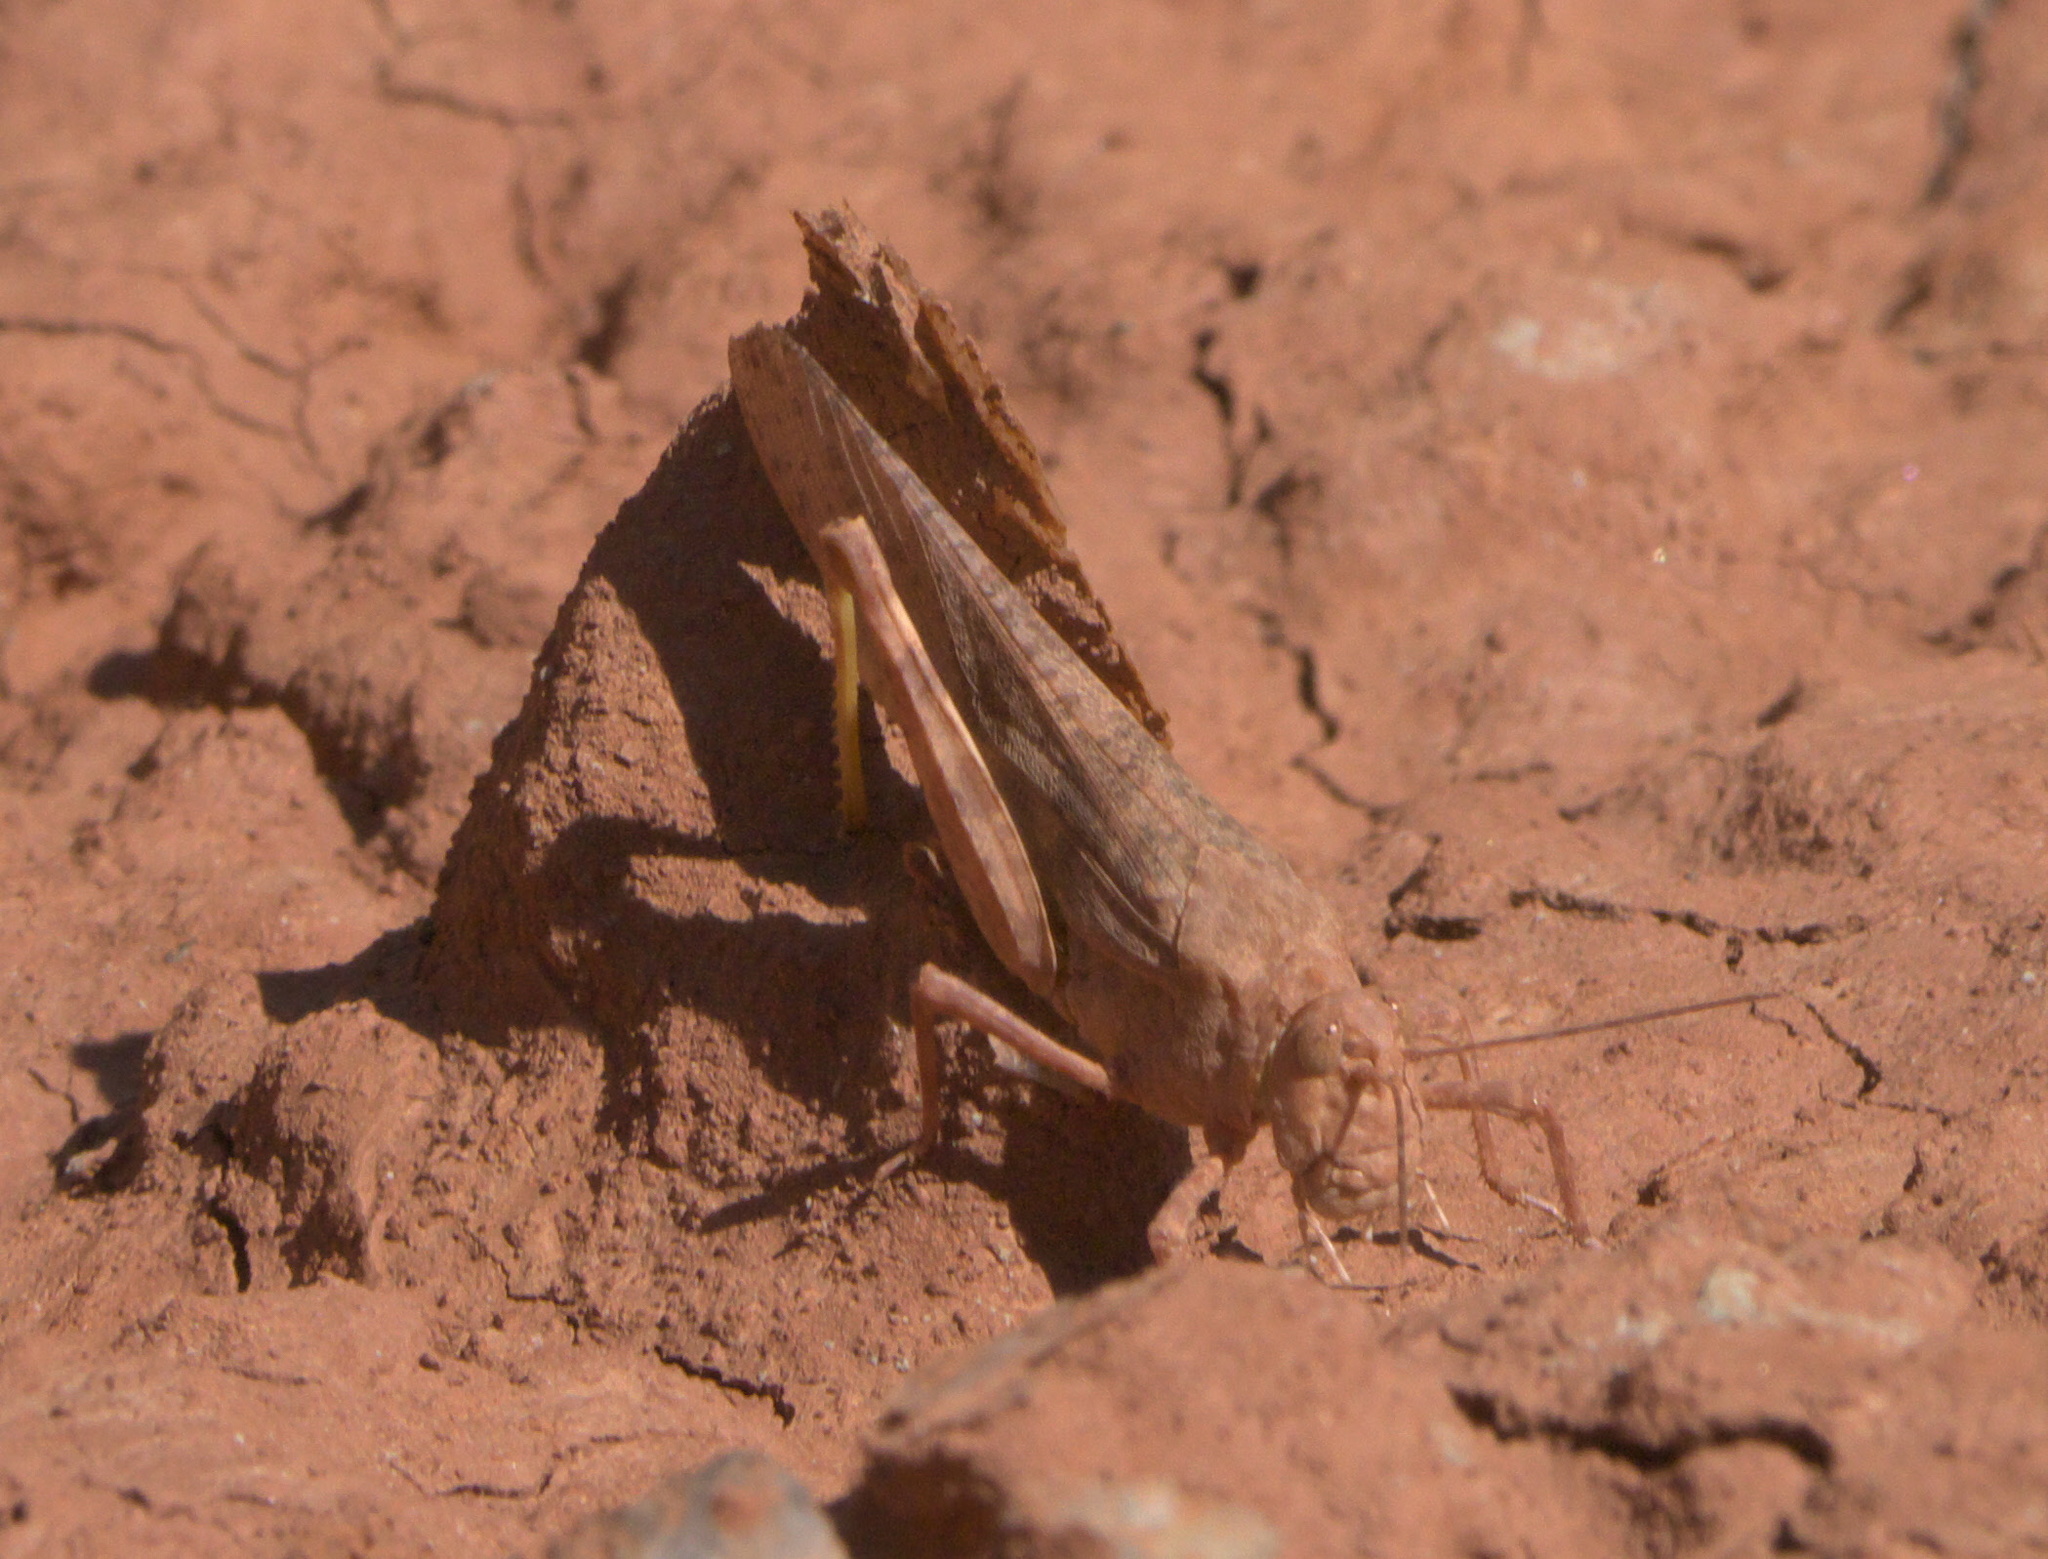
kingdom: Animalia
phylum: Arthropoda
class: Insecta
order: Orthoptera
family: Acrididae
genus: Circotettix
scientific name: Circotettix rabula
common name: Wrangler grasshopper
